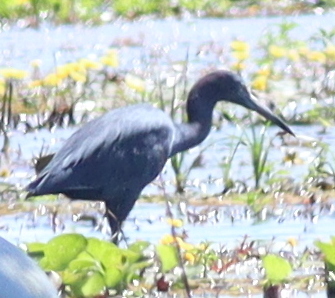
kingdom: Animalia
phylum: Chordata
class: Aves
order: Pelecaniformes
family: Ardeidae
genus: Egretta
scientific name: Egretta caerulea
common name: Little blue heron
